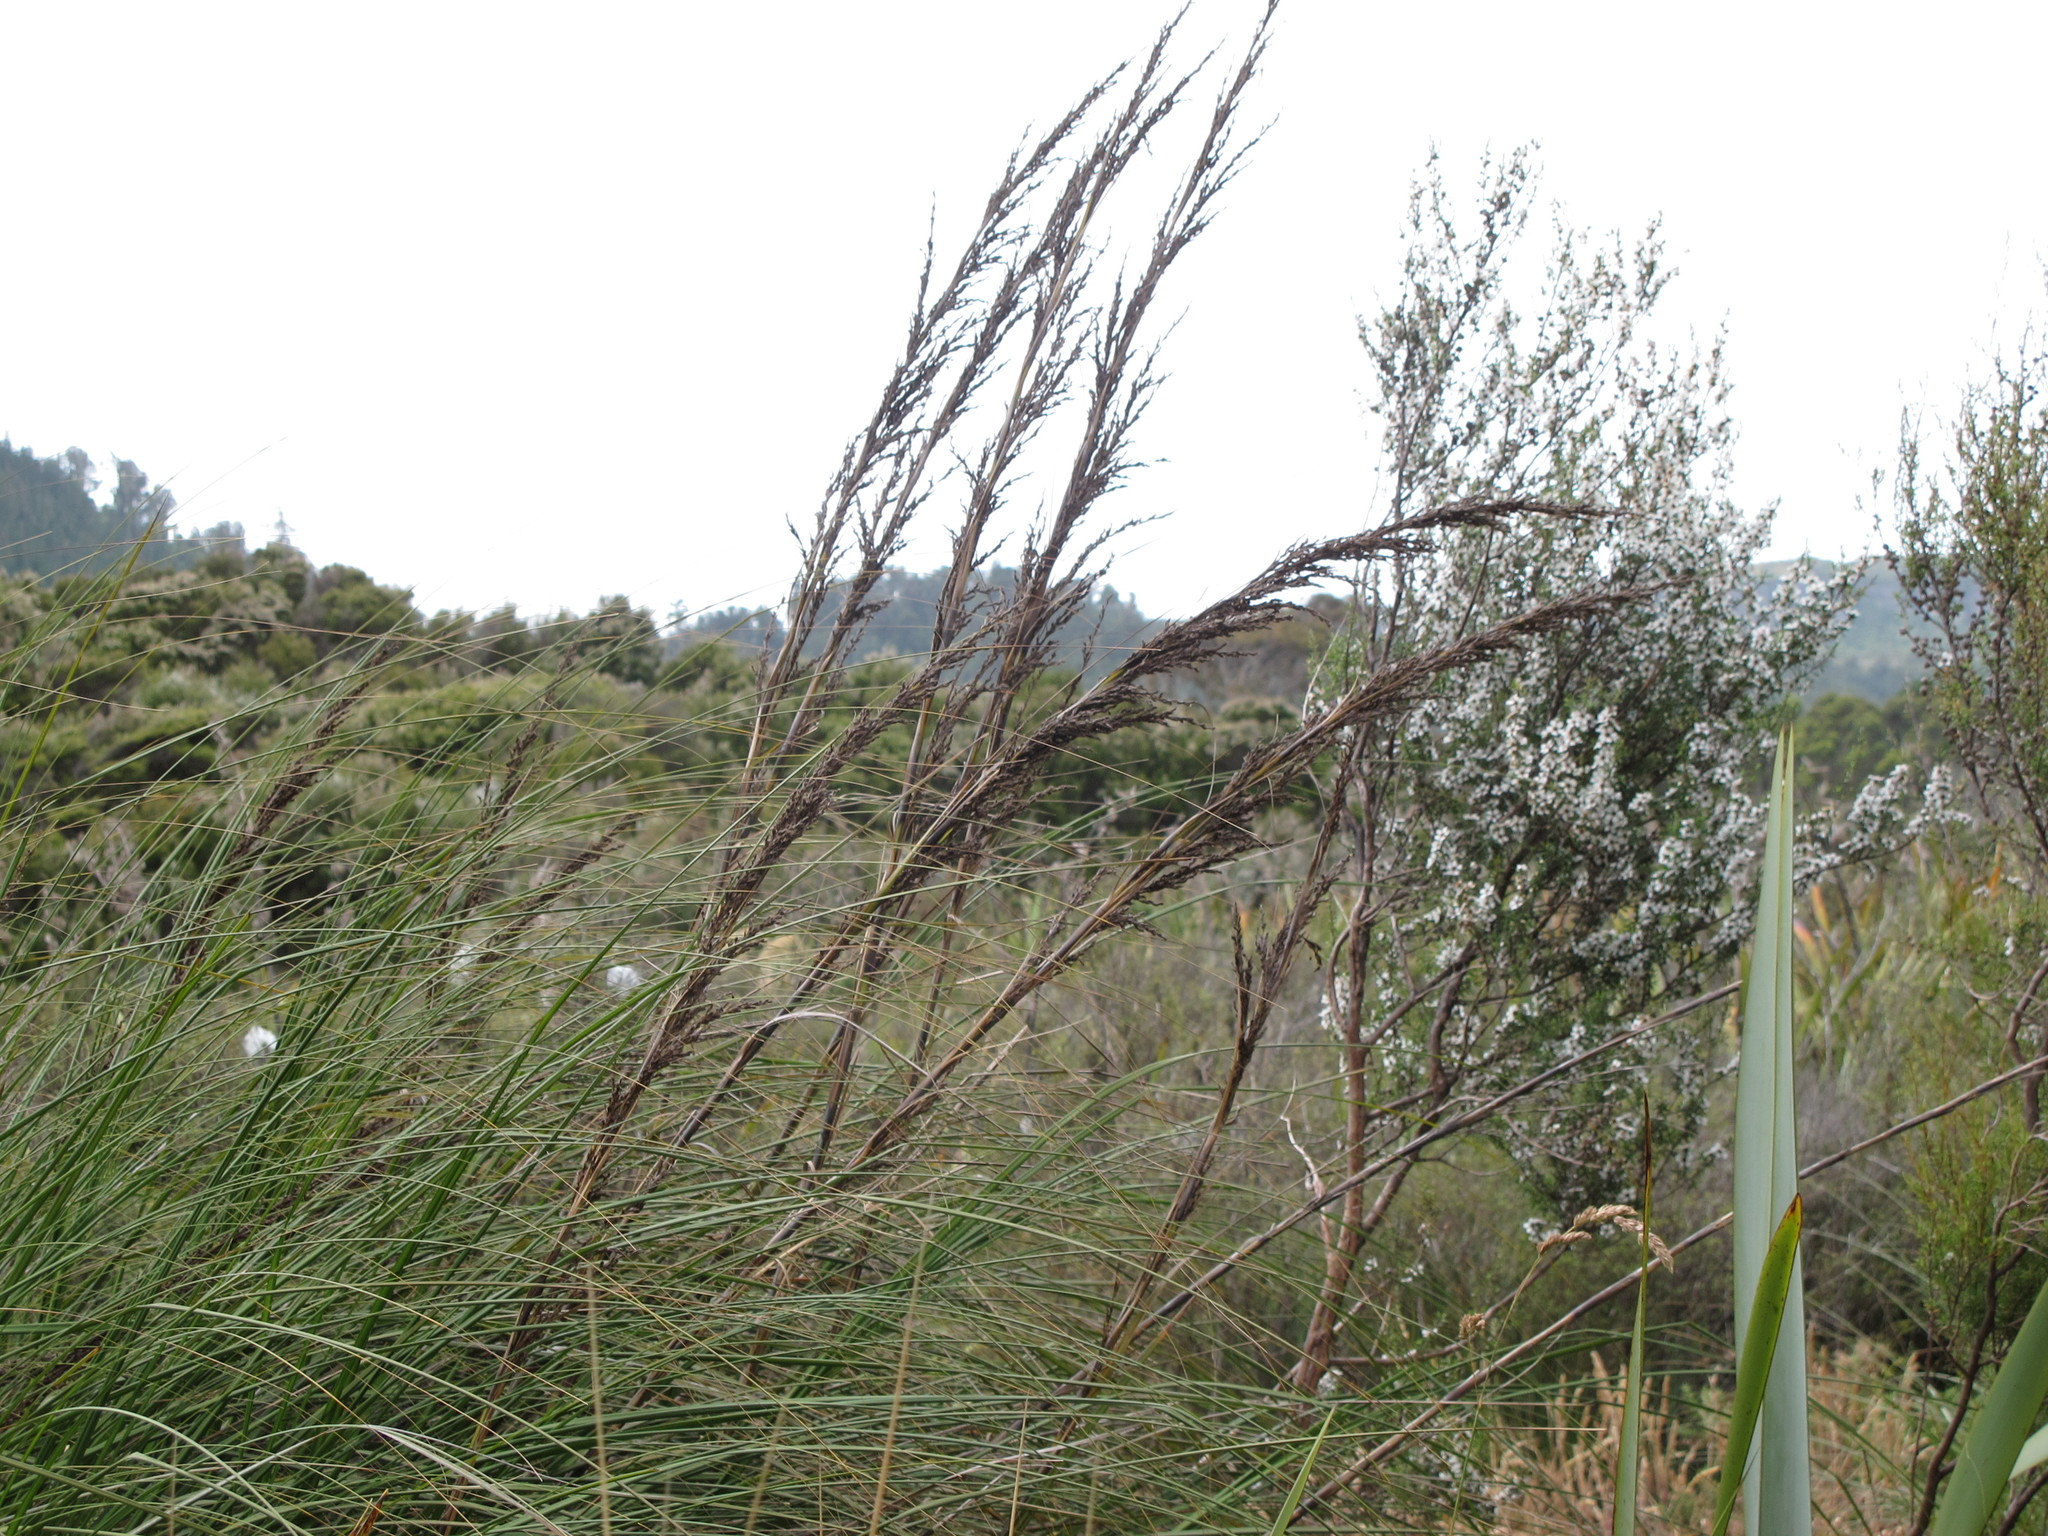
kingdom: Plantae
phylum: Tracheophyta
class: Liliopsida
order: Poales
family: Cyperaceae
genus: Gahnia
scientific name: Gahnia rigida
